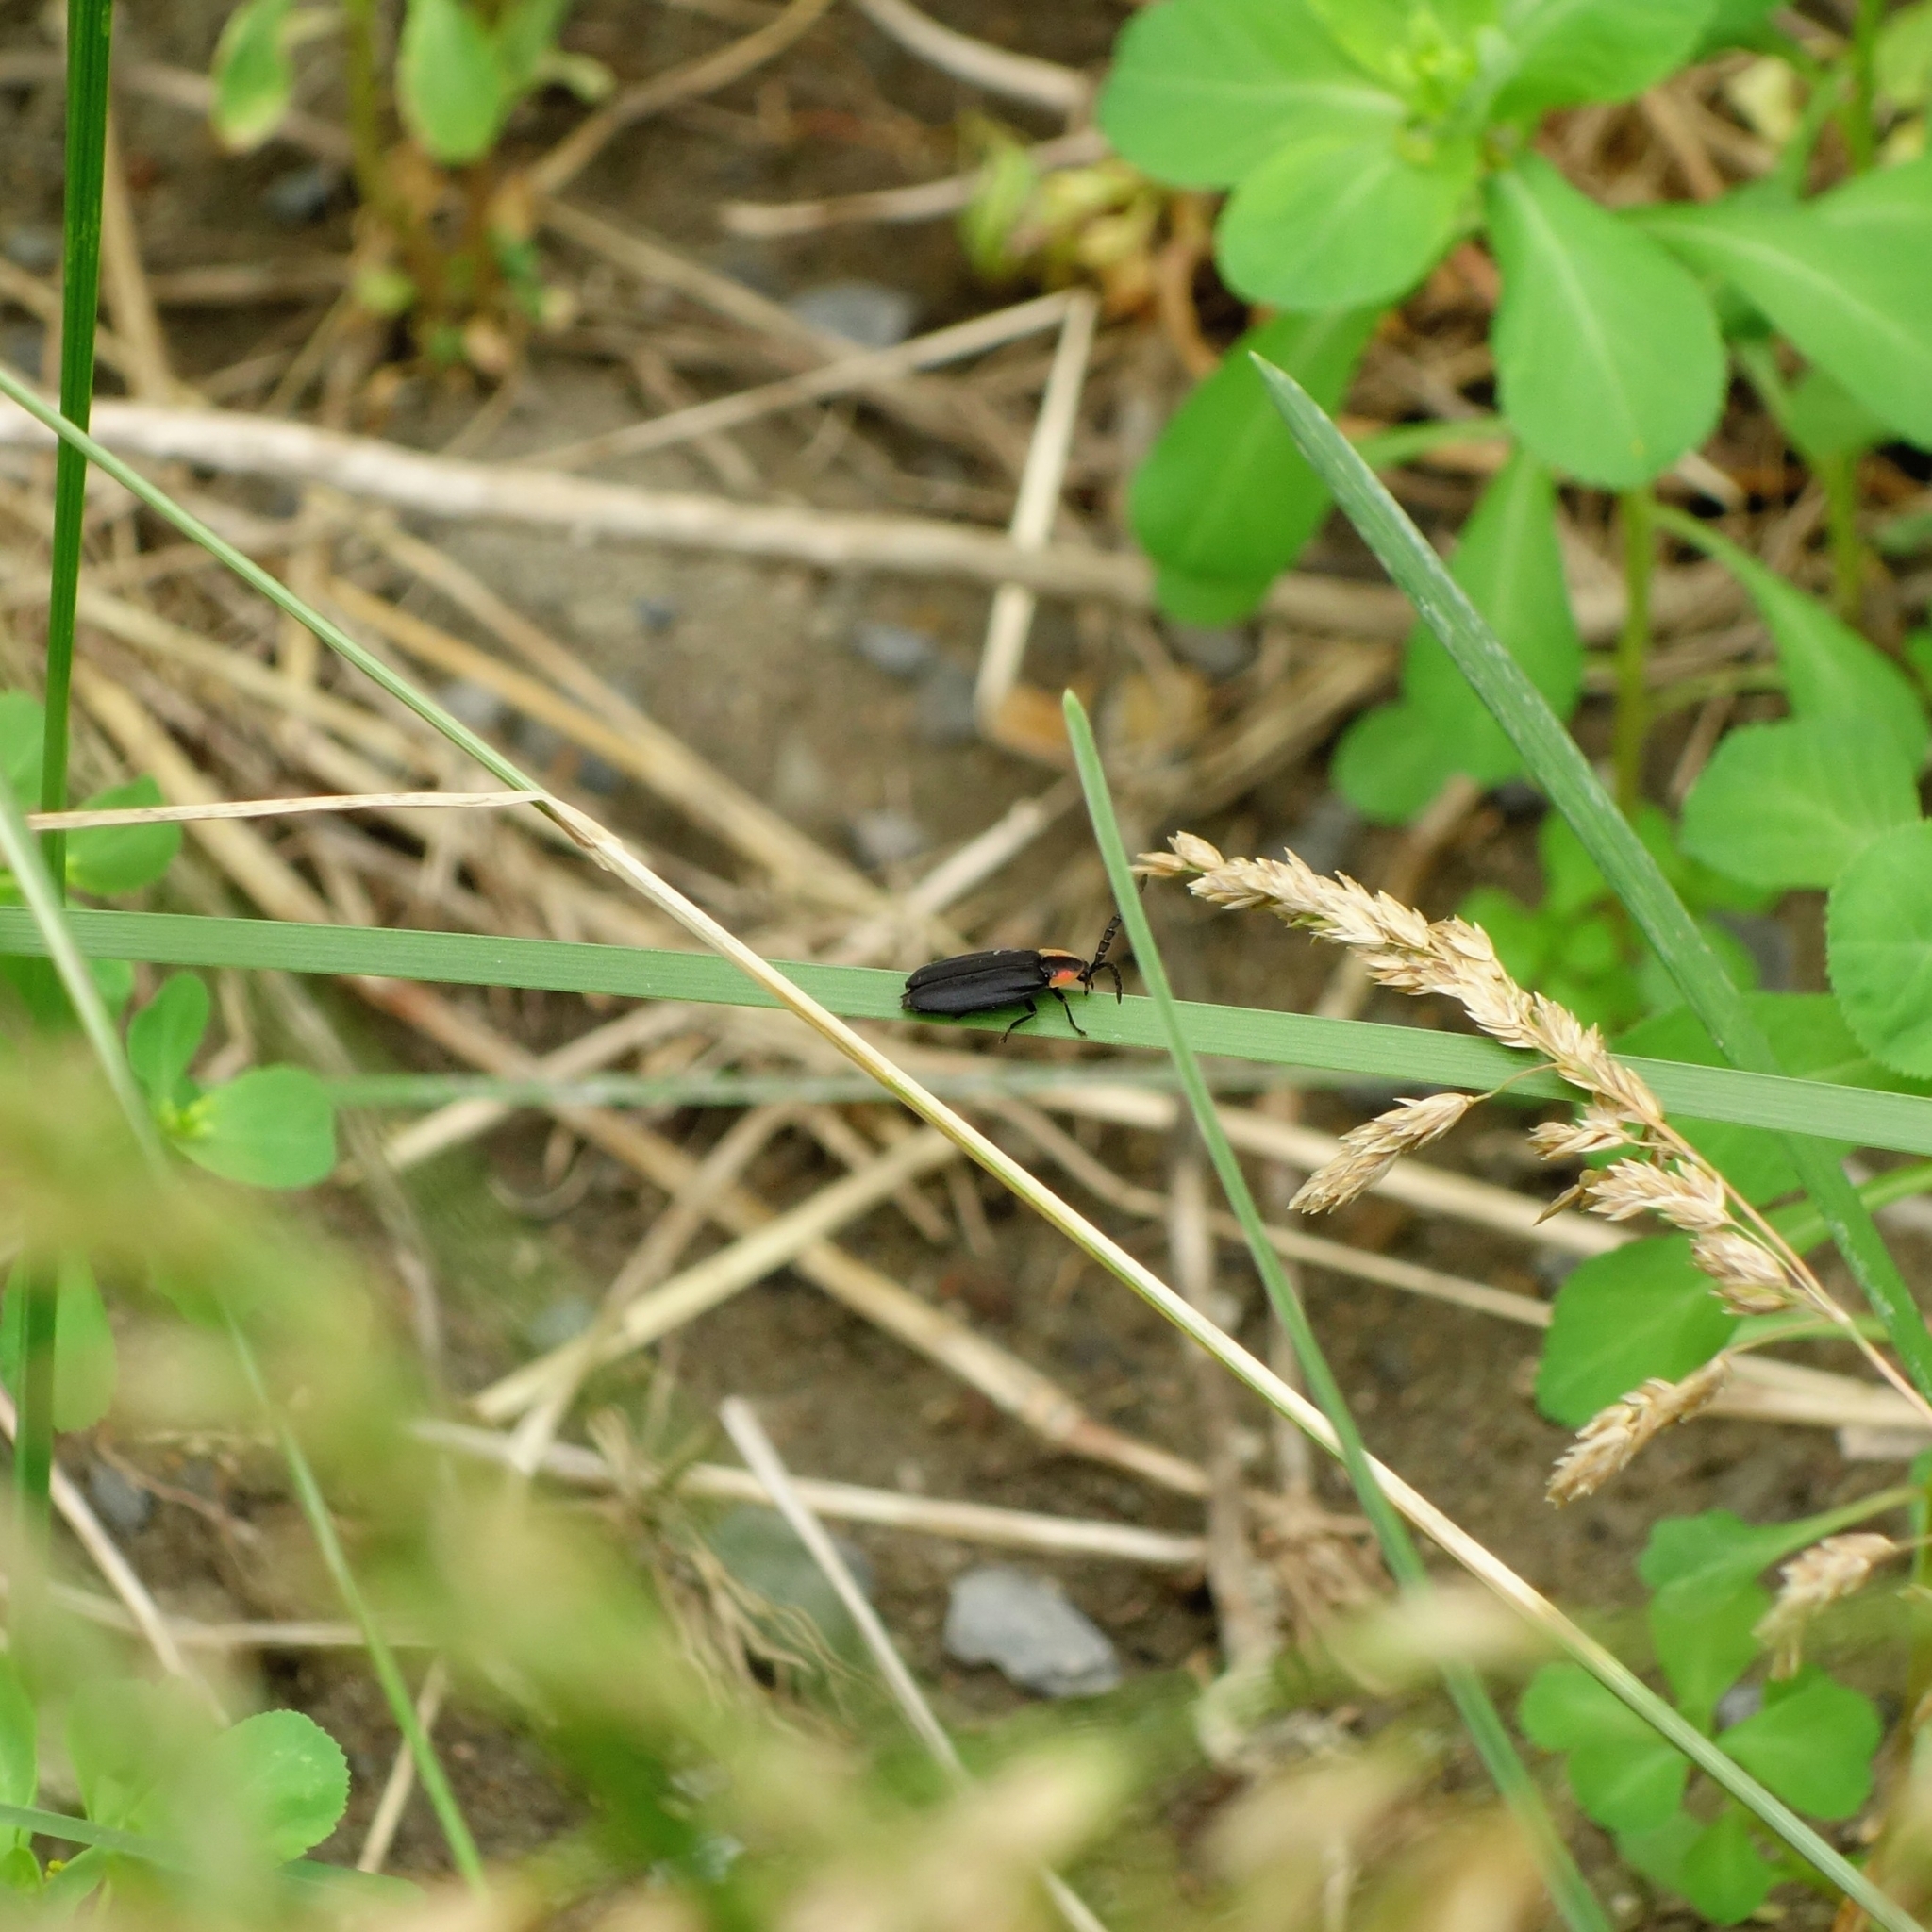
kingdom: Animalia
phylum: Arthropoda
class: Insecta
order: Coleoptera
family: Lampyridae
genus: Lucidota
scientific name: Lucidota atra
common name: Black firefly
